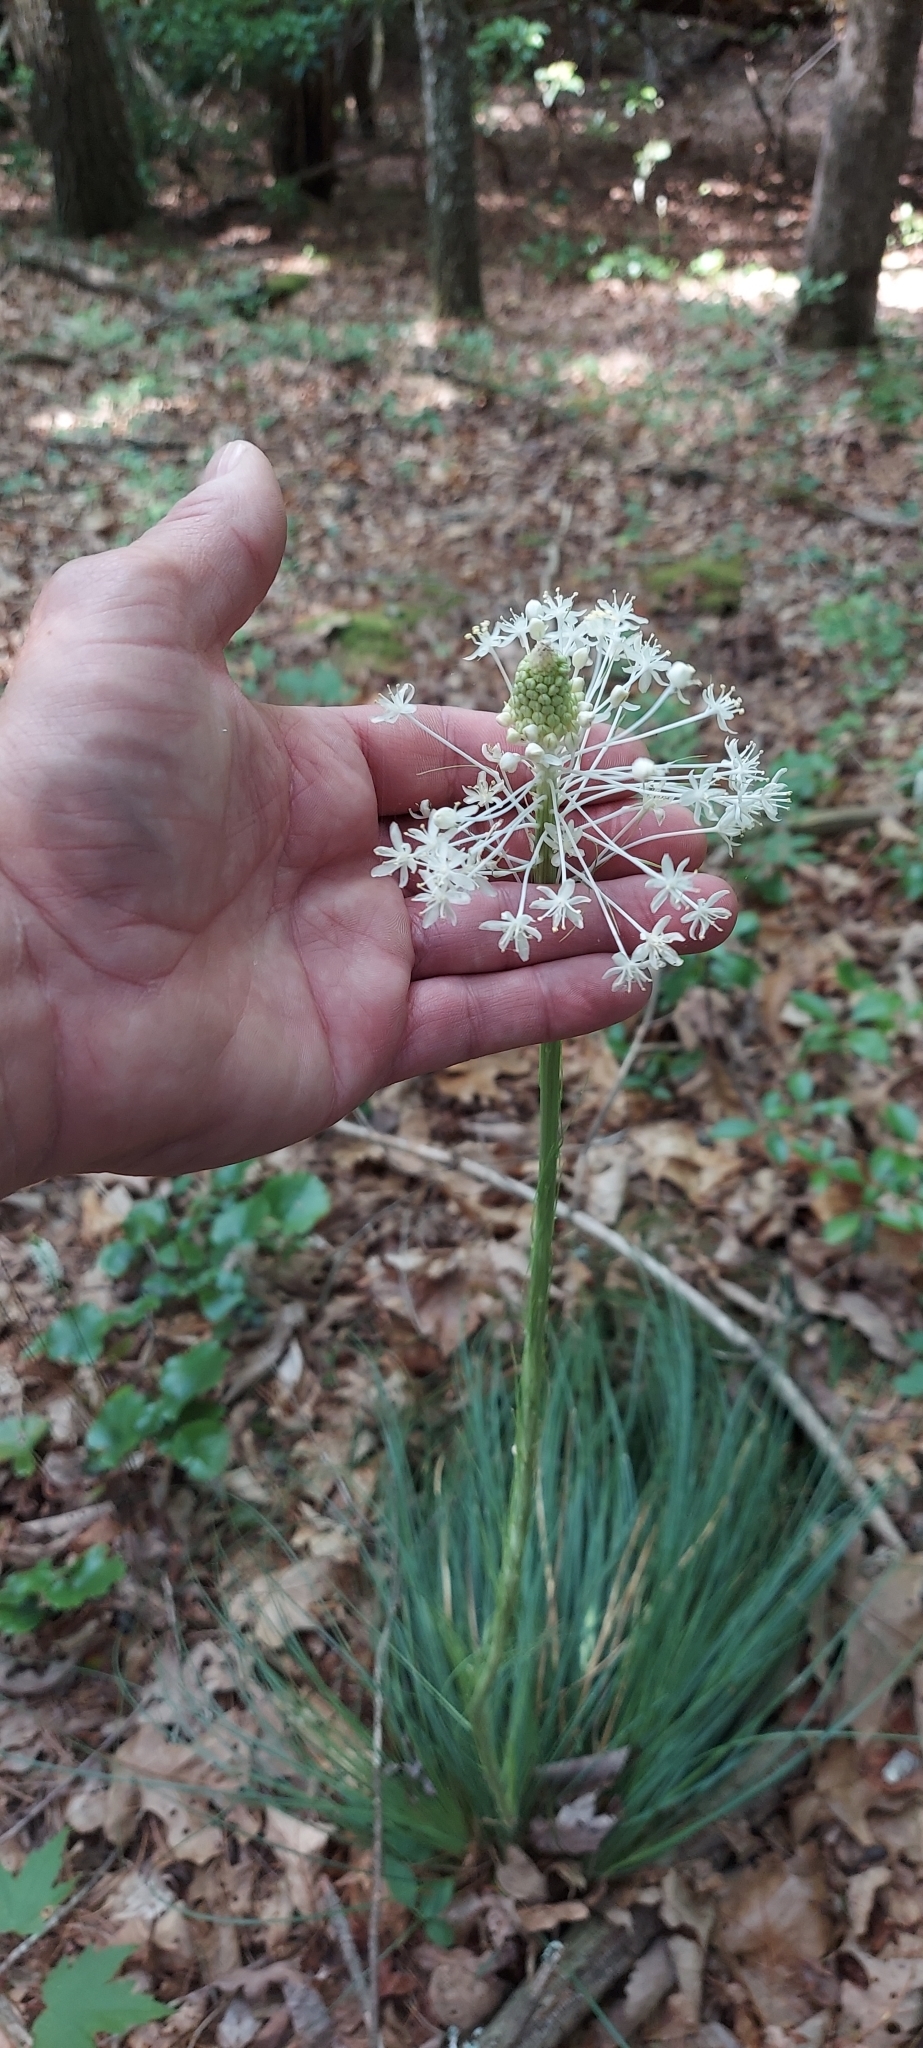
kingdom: Plantae
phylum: Tracheophyta
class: Liliopsida
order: Liliales
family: Melanthiaceae
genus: Xerophyllum
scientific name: Xerophyllum asphodeloides
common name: Mountain-asphodel
